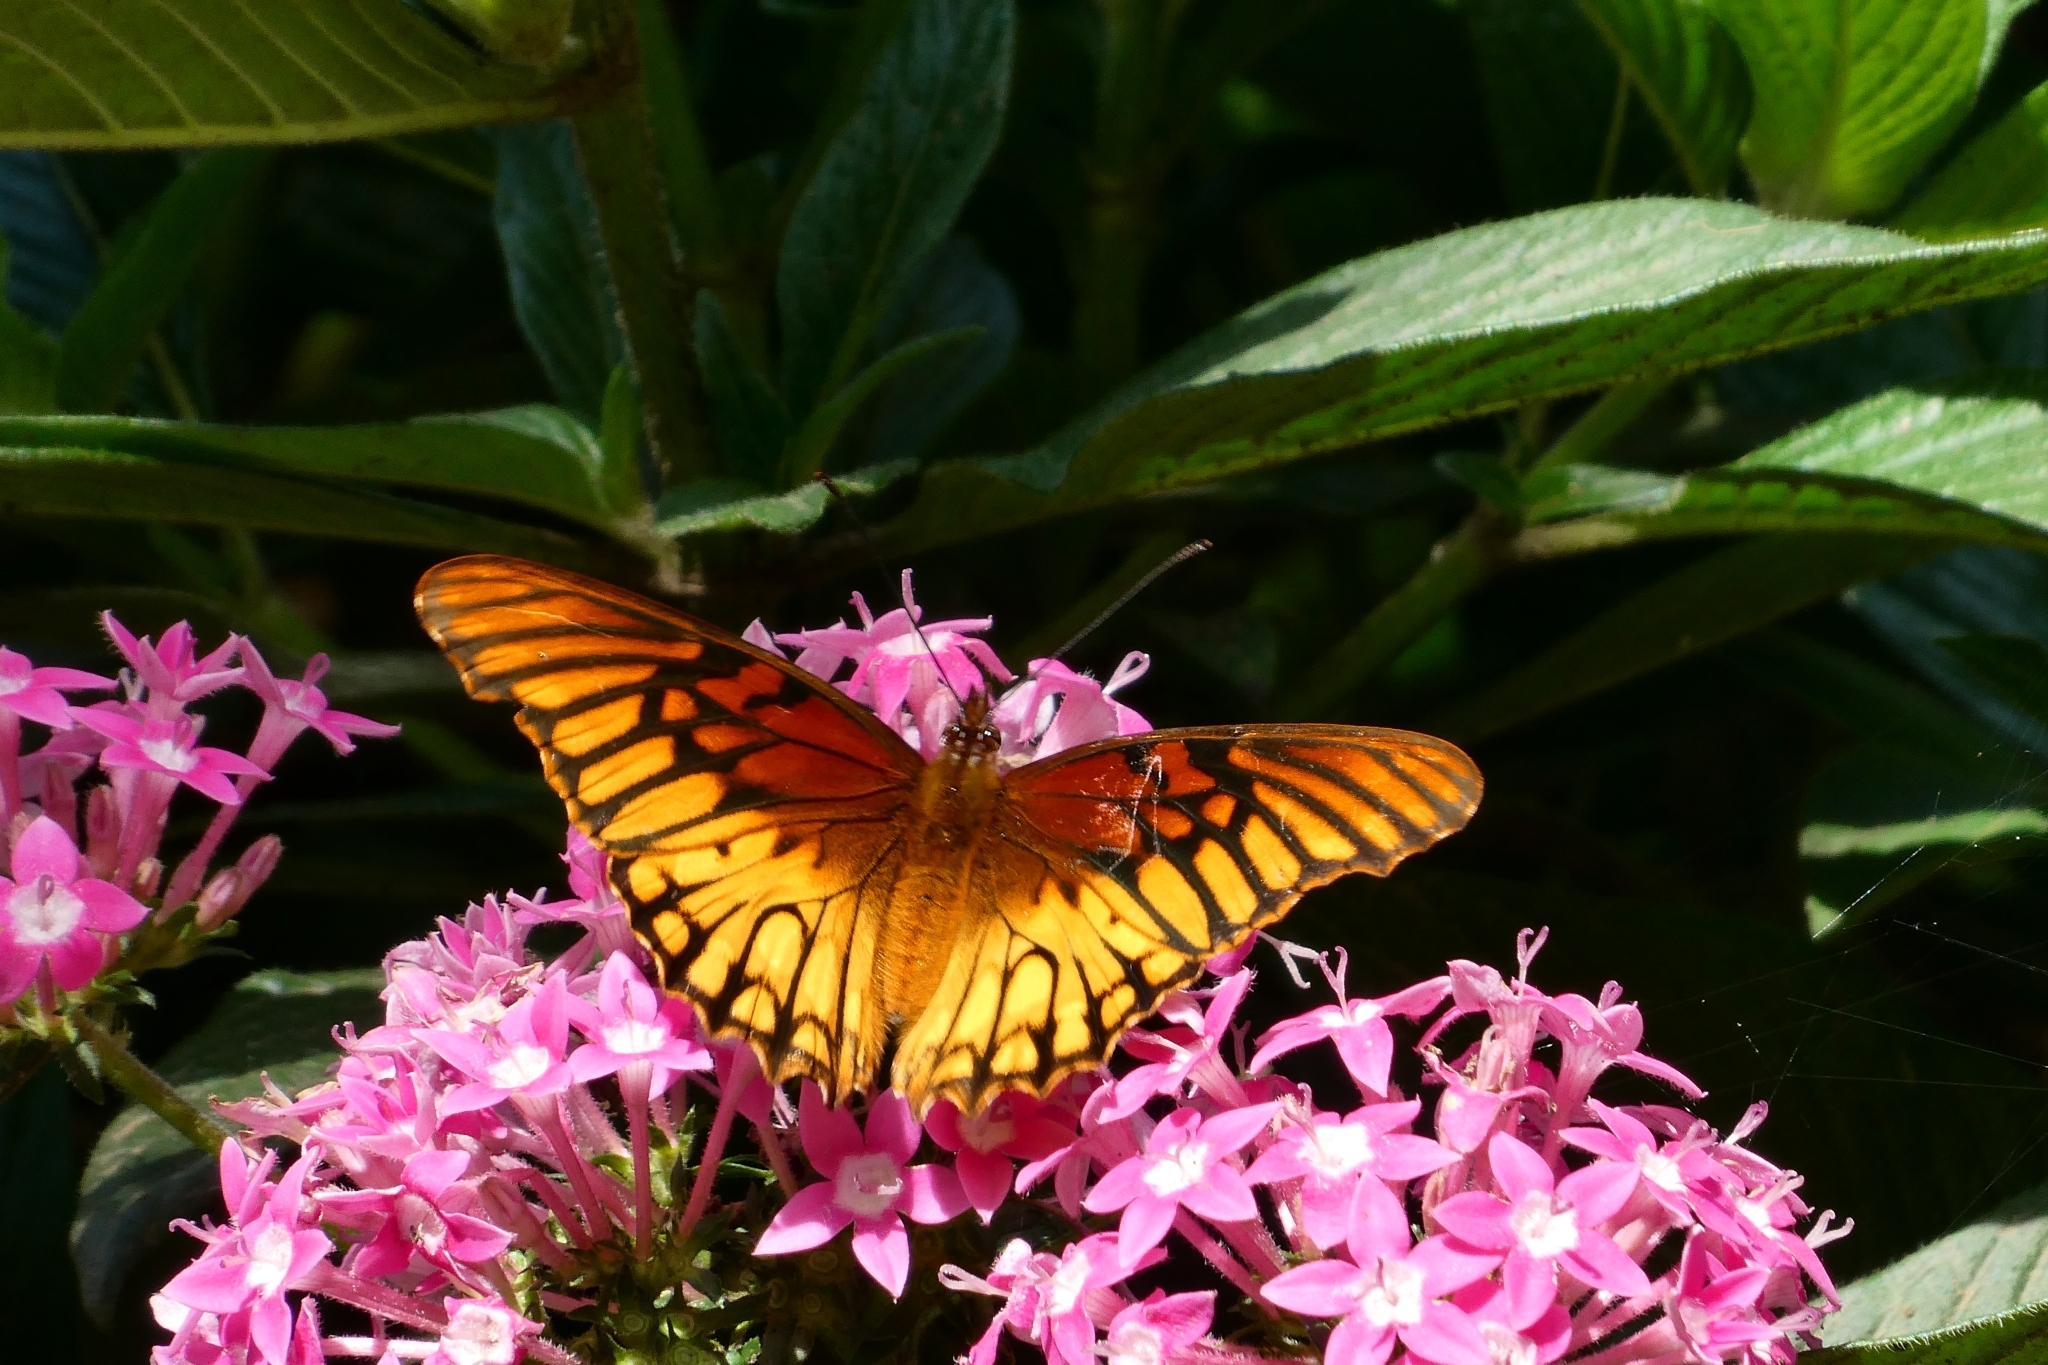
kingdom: Animalia
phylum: Arthropoda
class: Insecta
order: Lepidoptera
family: Nymphalidae
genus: Dione
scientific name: Dione moneta
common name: Mexican silverspot
